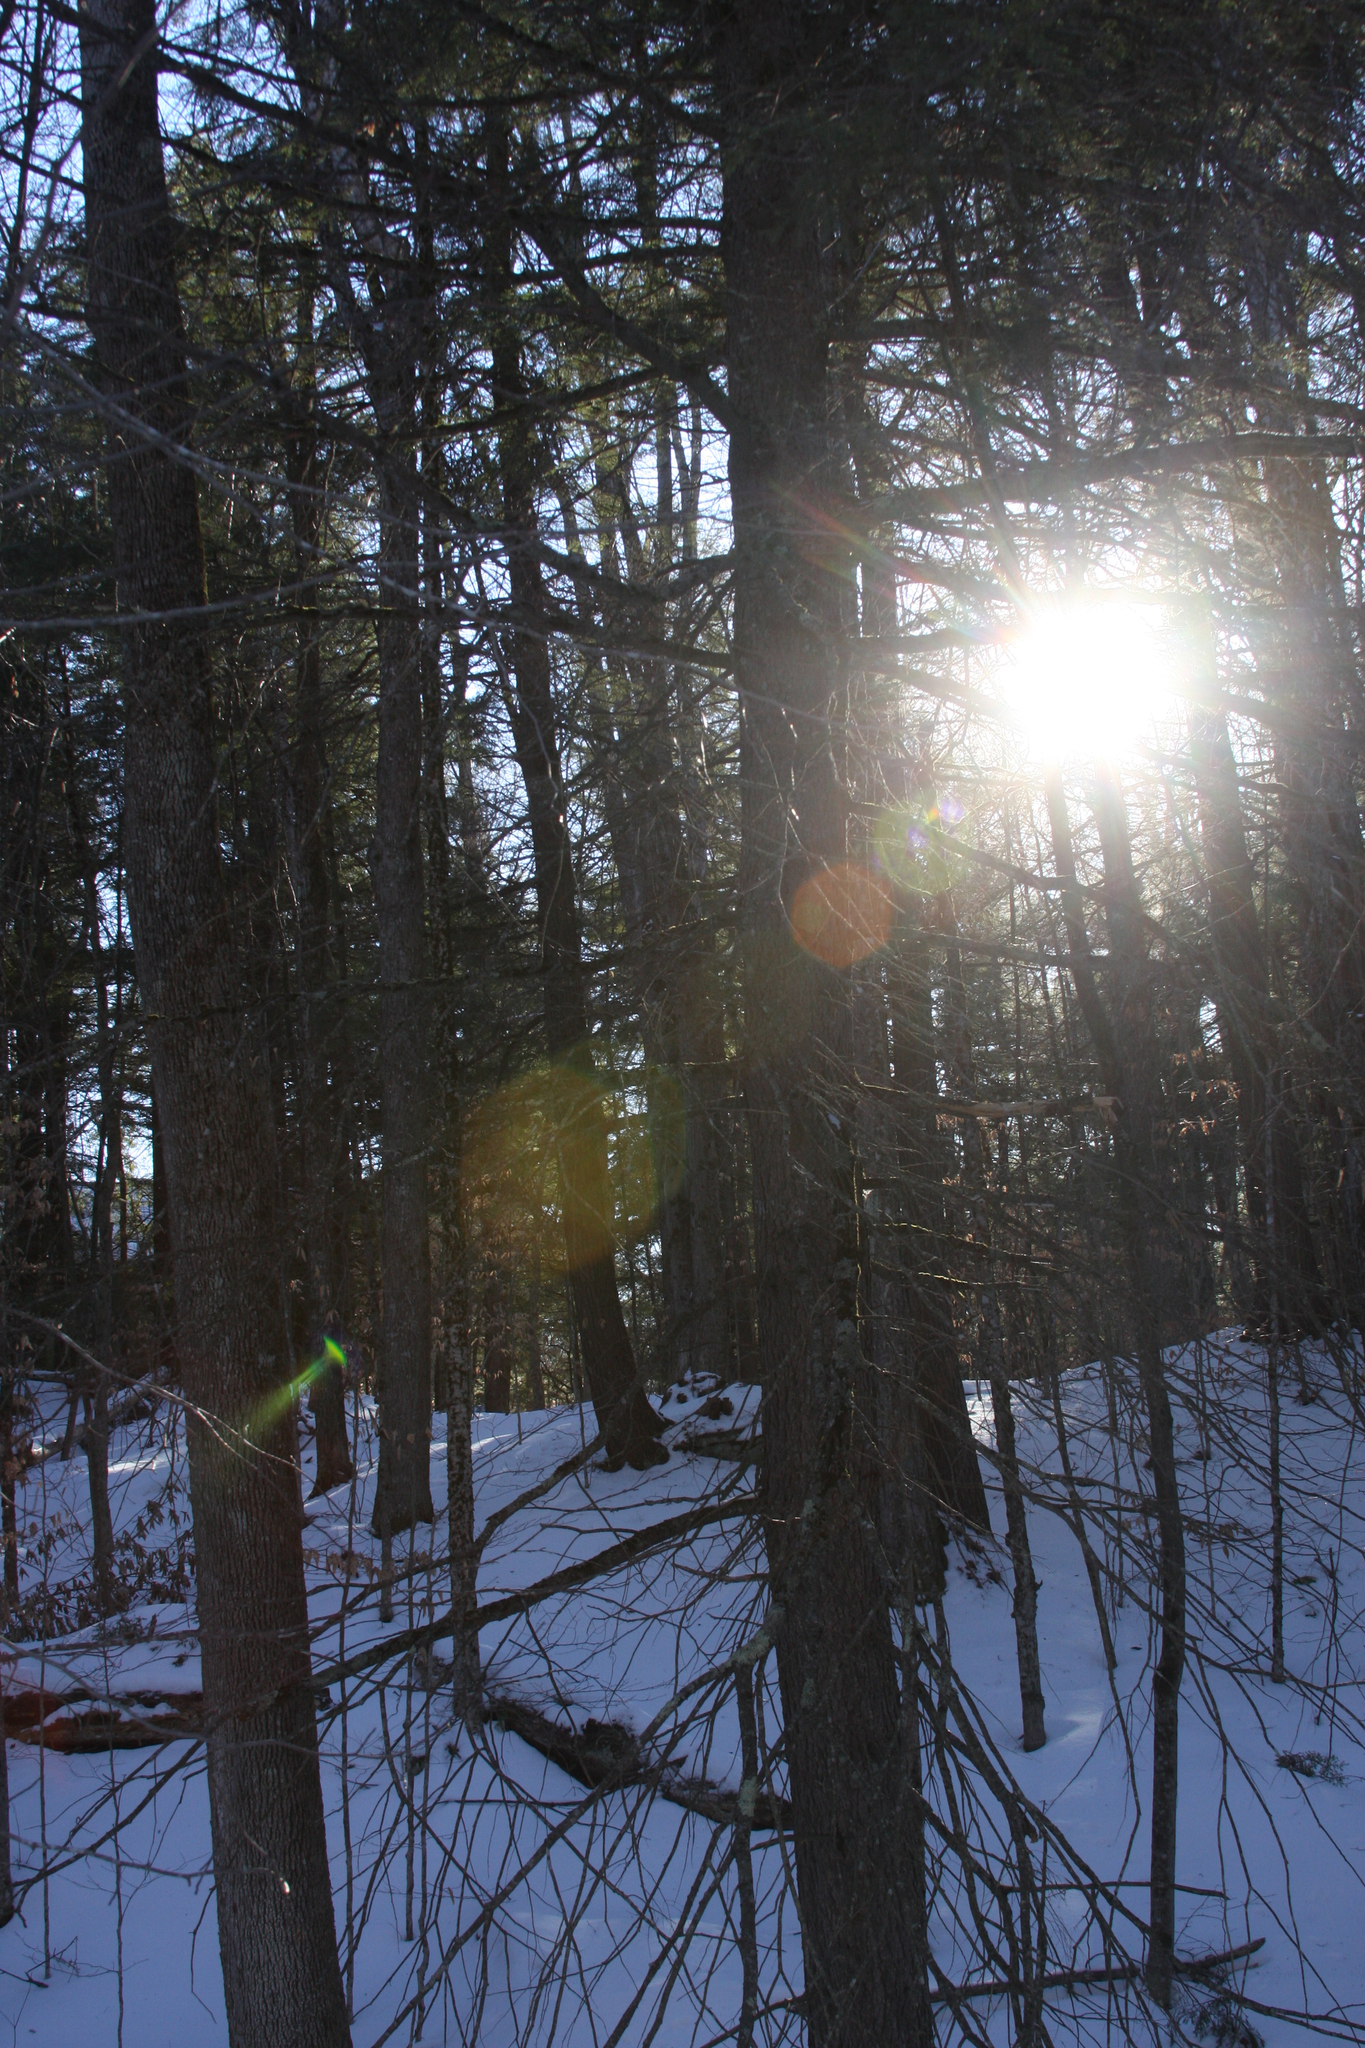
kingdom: Plantae
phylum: Tracheophyta
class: Pinopsida
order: Pinales
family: Pinaceae
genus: Tsuga
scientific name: Tsuga canadensis
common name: Eastern hemlock
